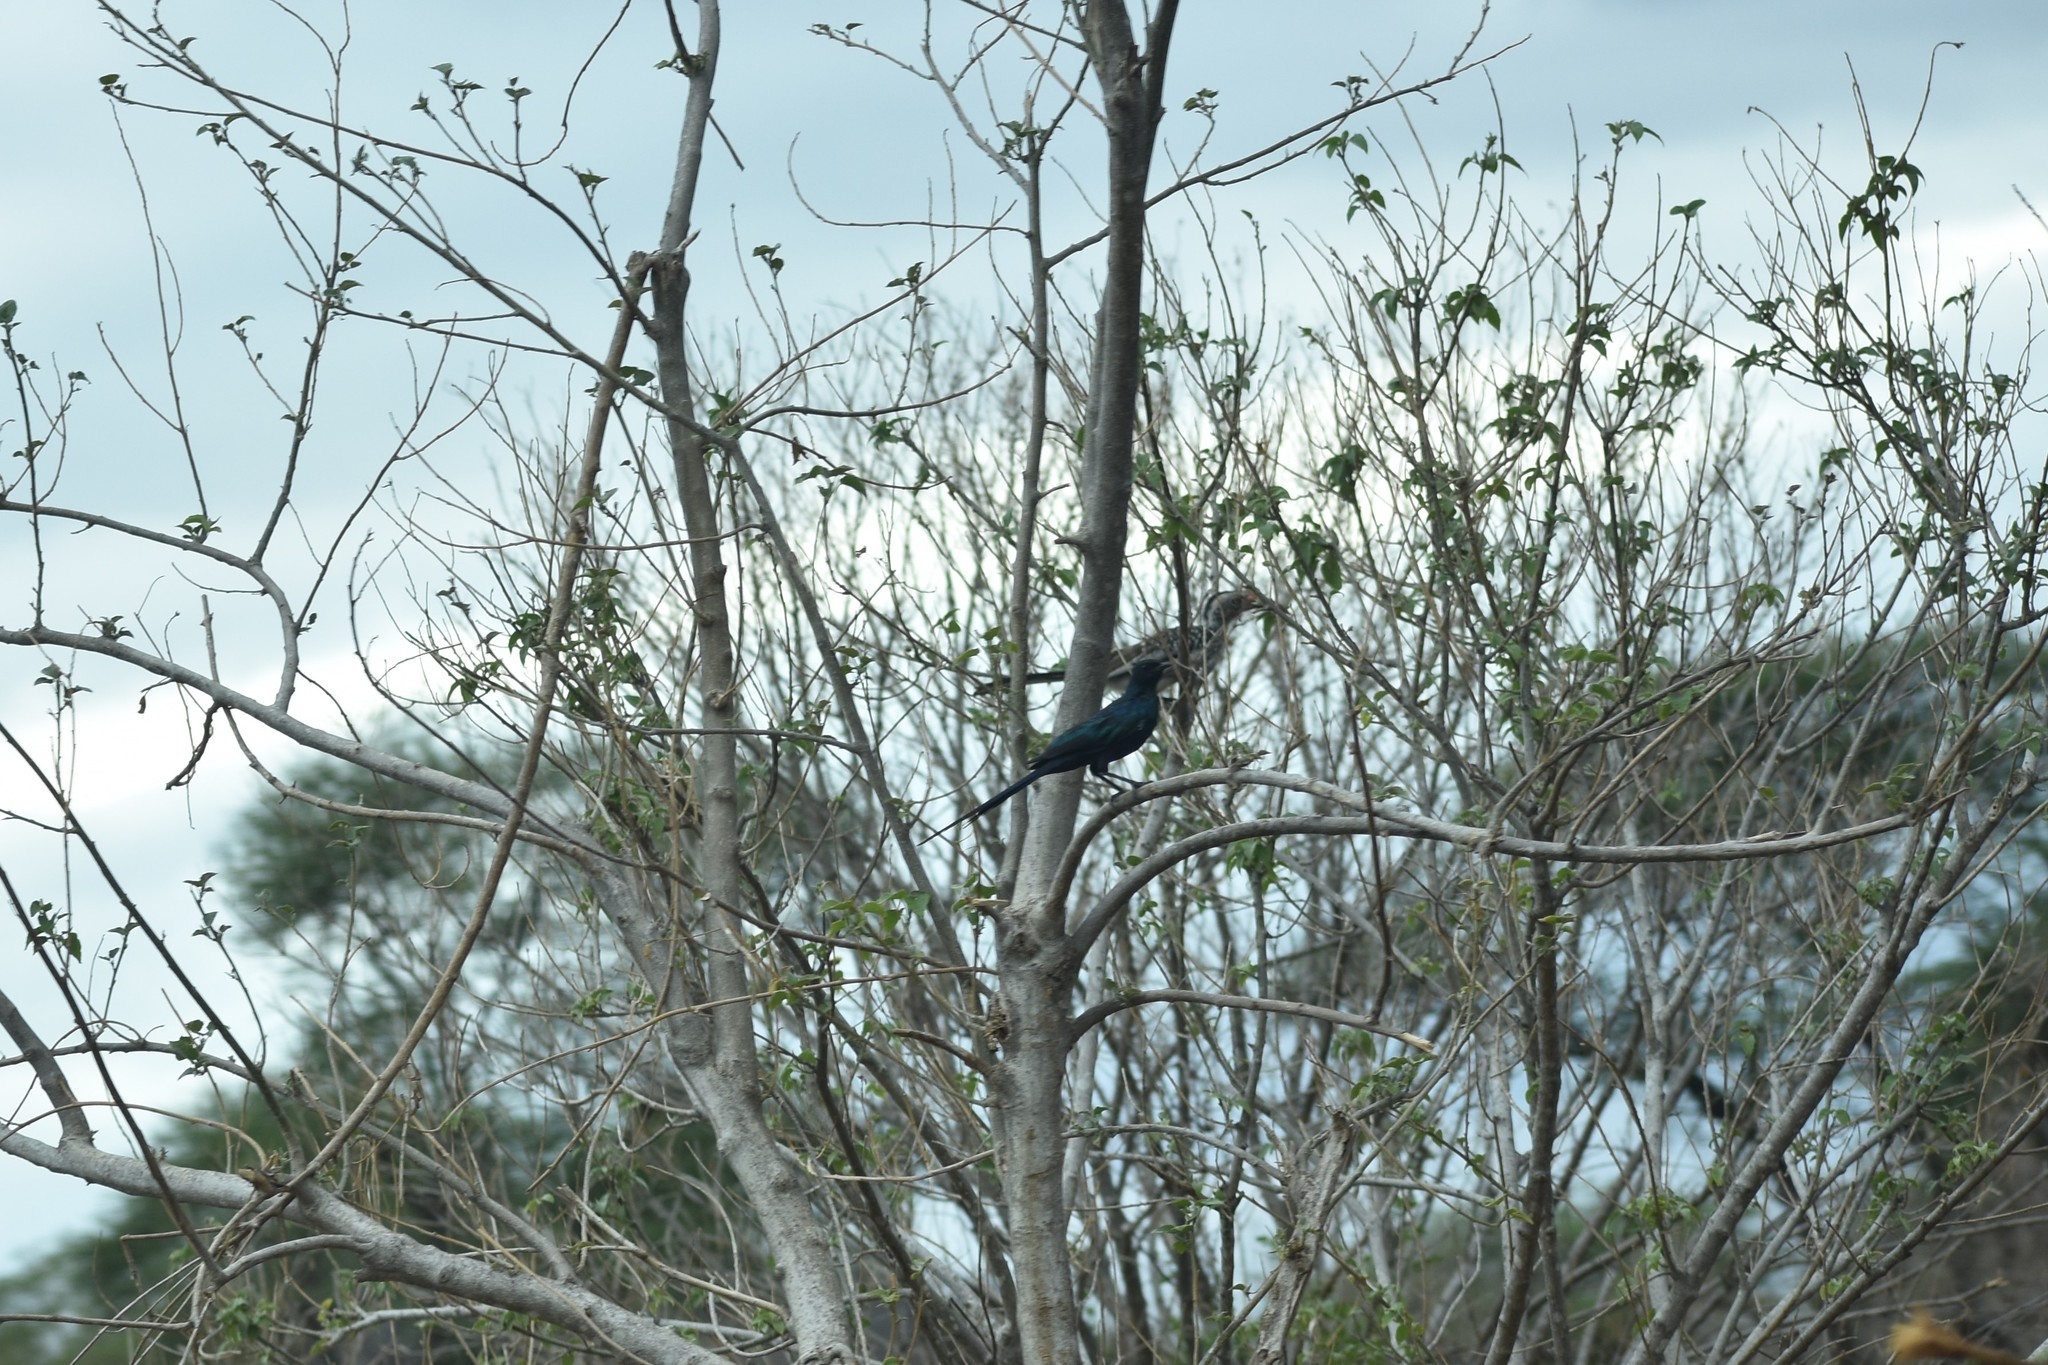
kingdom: Animalia
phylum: Chordata
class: Aves
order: Passeriformes
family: Sturnidae
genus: Lamprotornis
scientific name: Lamprotornis mevesii
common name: Meves's starling
